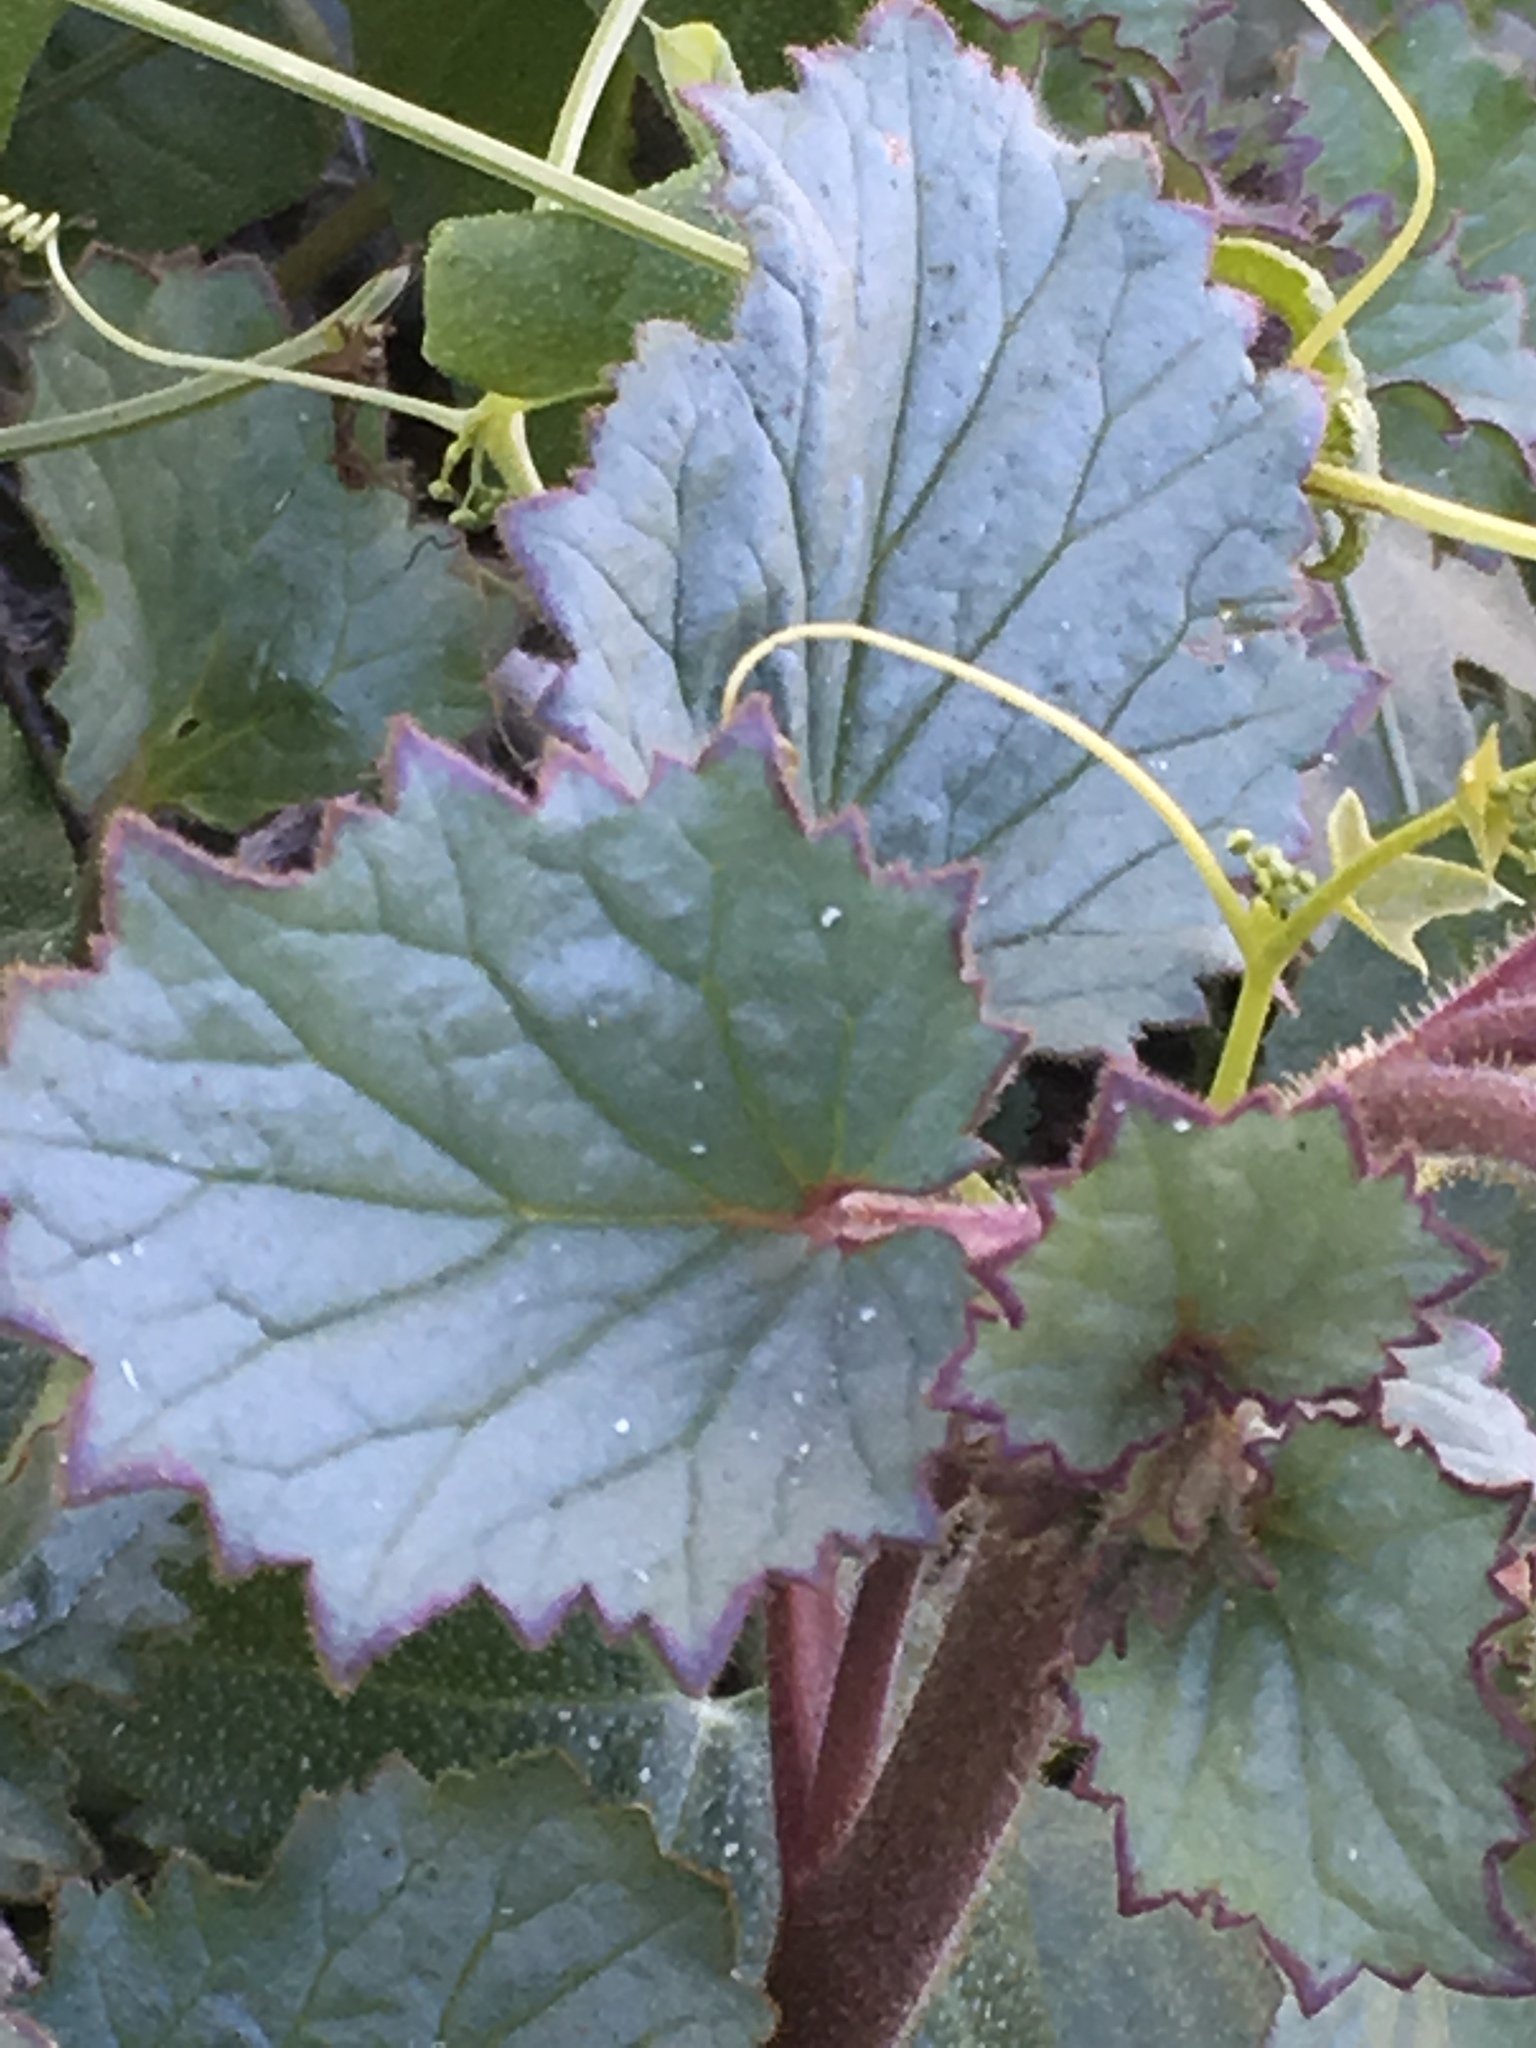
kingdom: Plantae
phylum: Tracheophyta
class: Magnoliopsida
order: Boraginales
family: Hydrophyllaceae
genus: Phacelia
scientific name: Phacelia campanularia
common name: California bluebell
